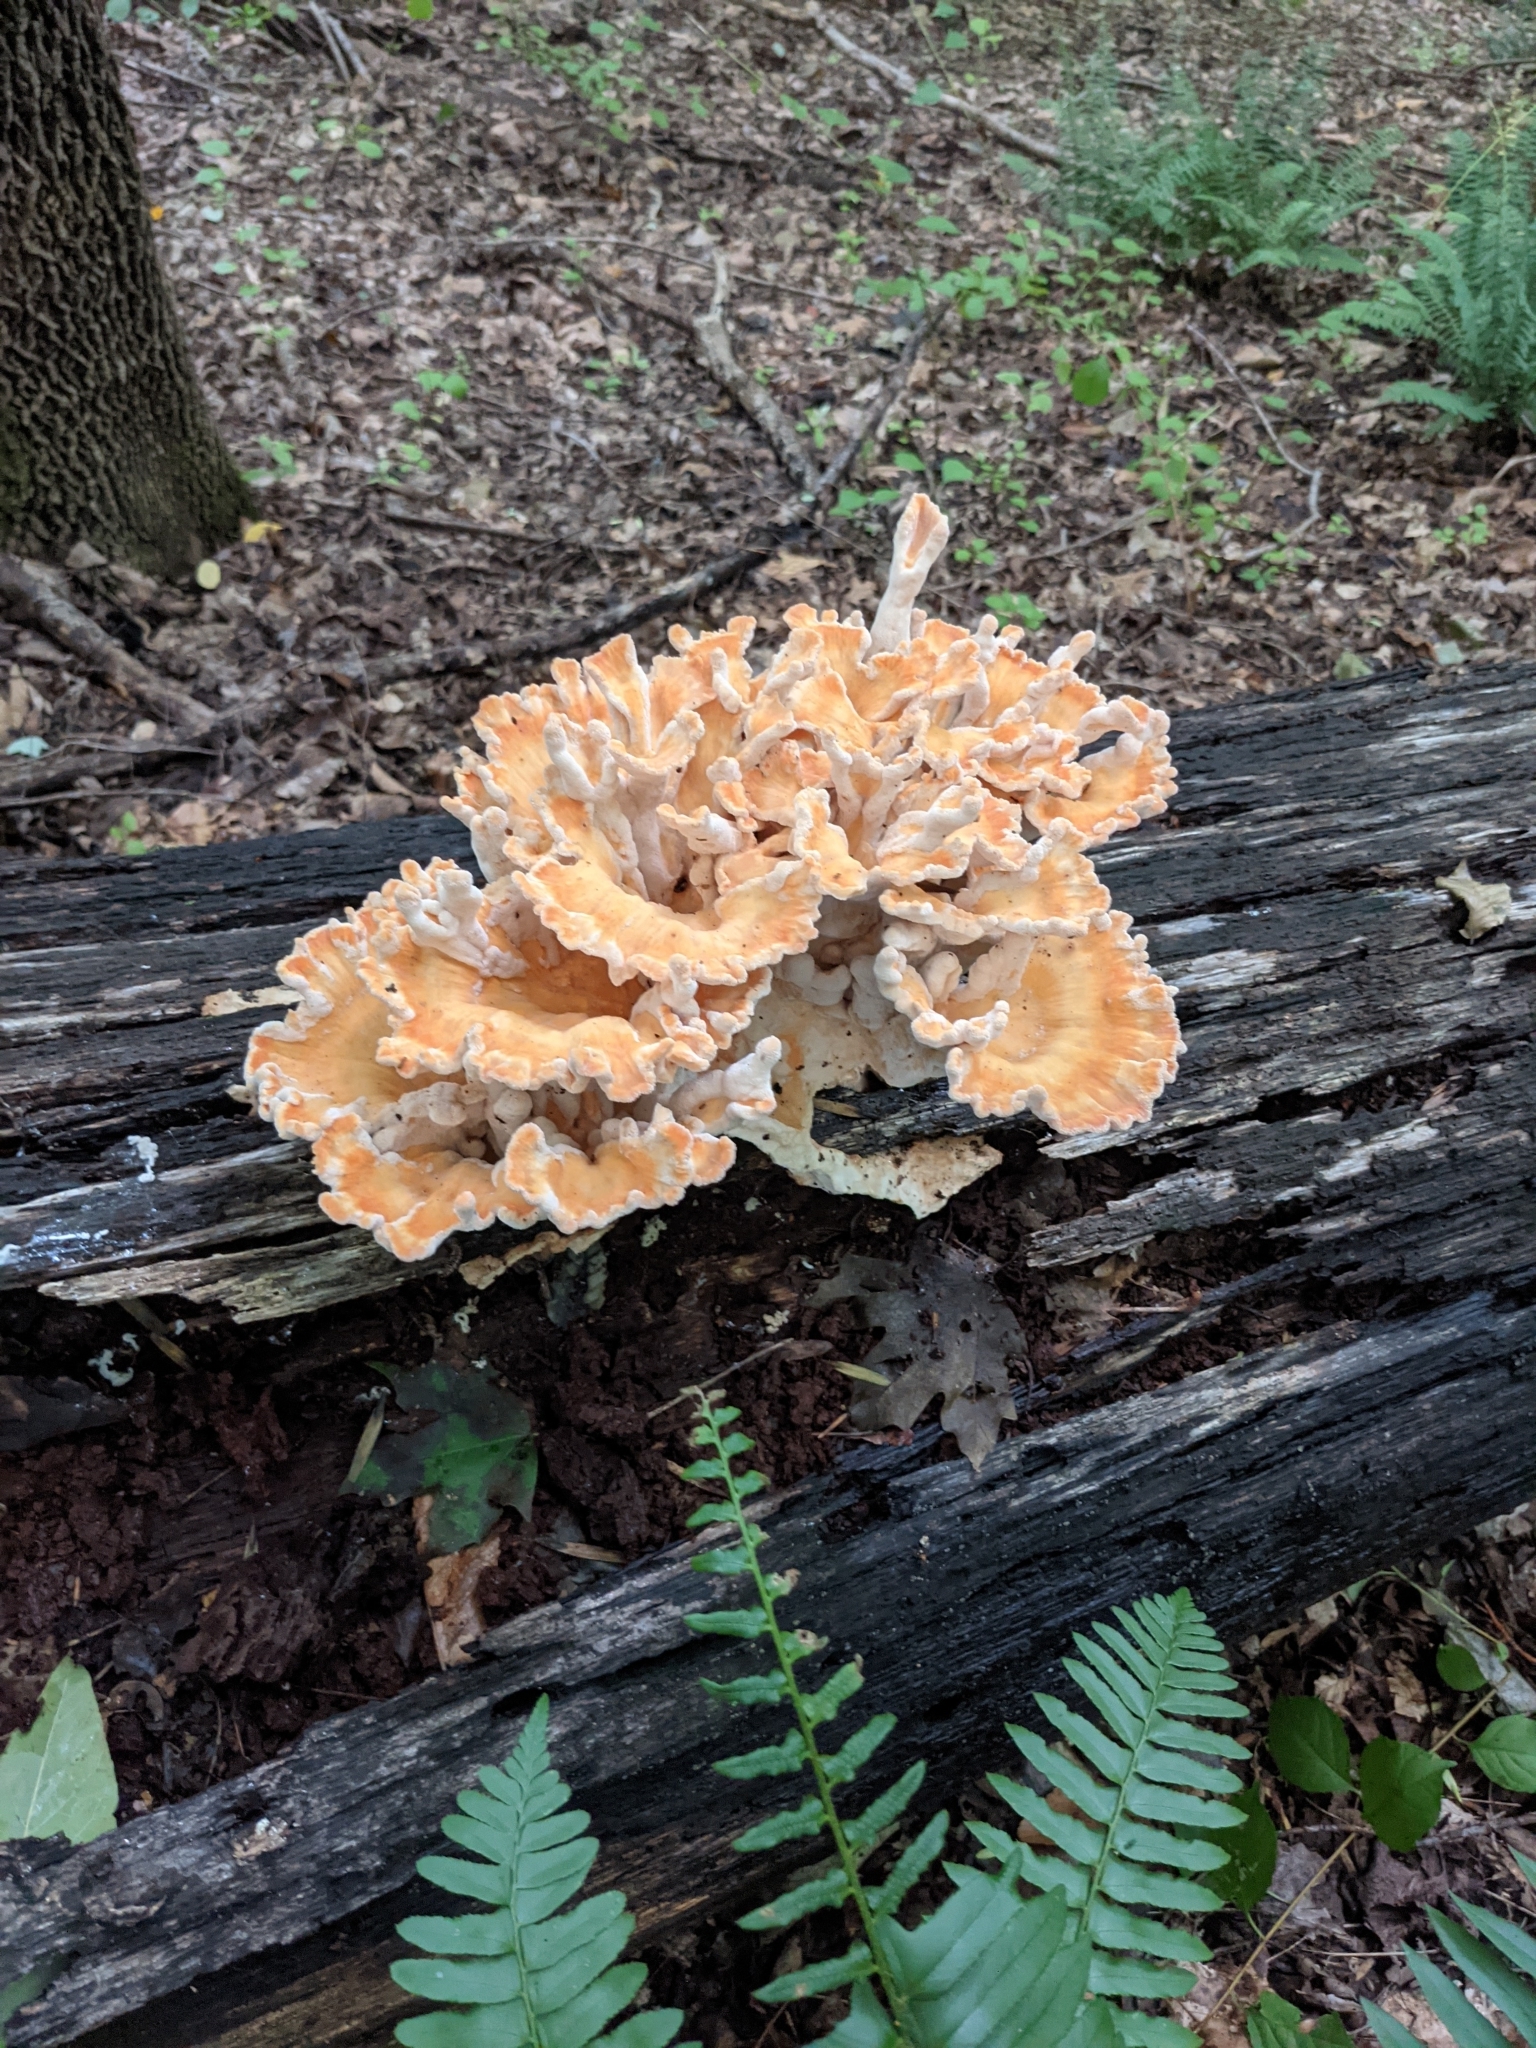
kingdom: Fungi
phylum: Basidiomycota
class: Agaricomycetes
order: Polyporales
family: Laetiporaceae
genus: Laetiporus
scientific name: Laetiporus sulphureus
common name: Chicken of the woods
